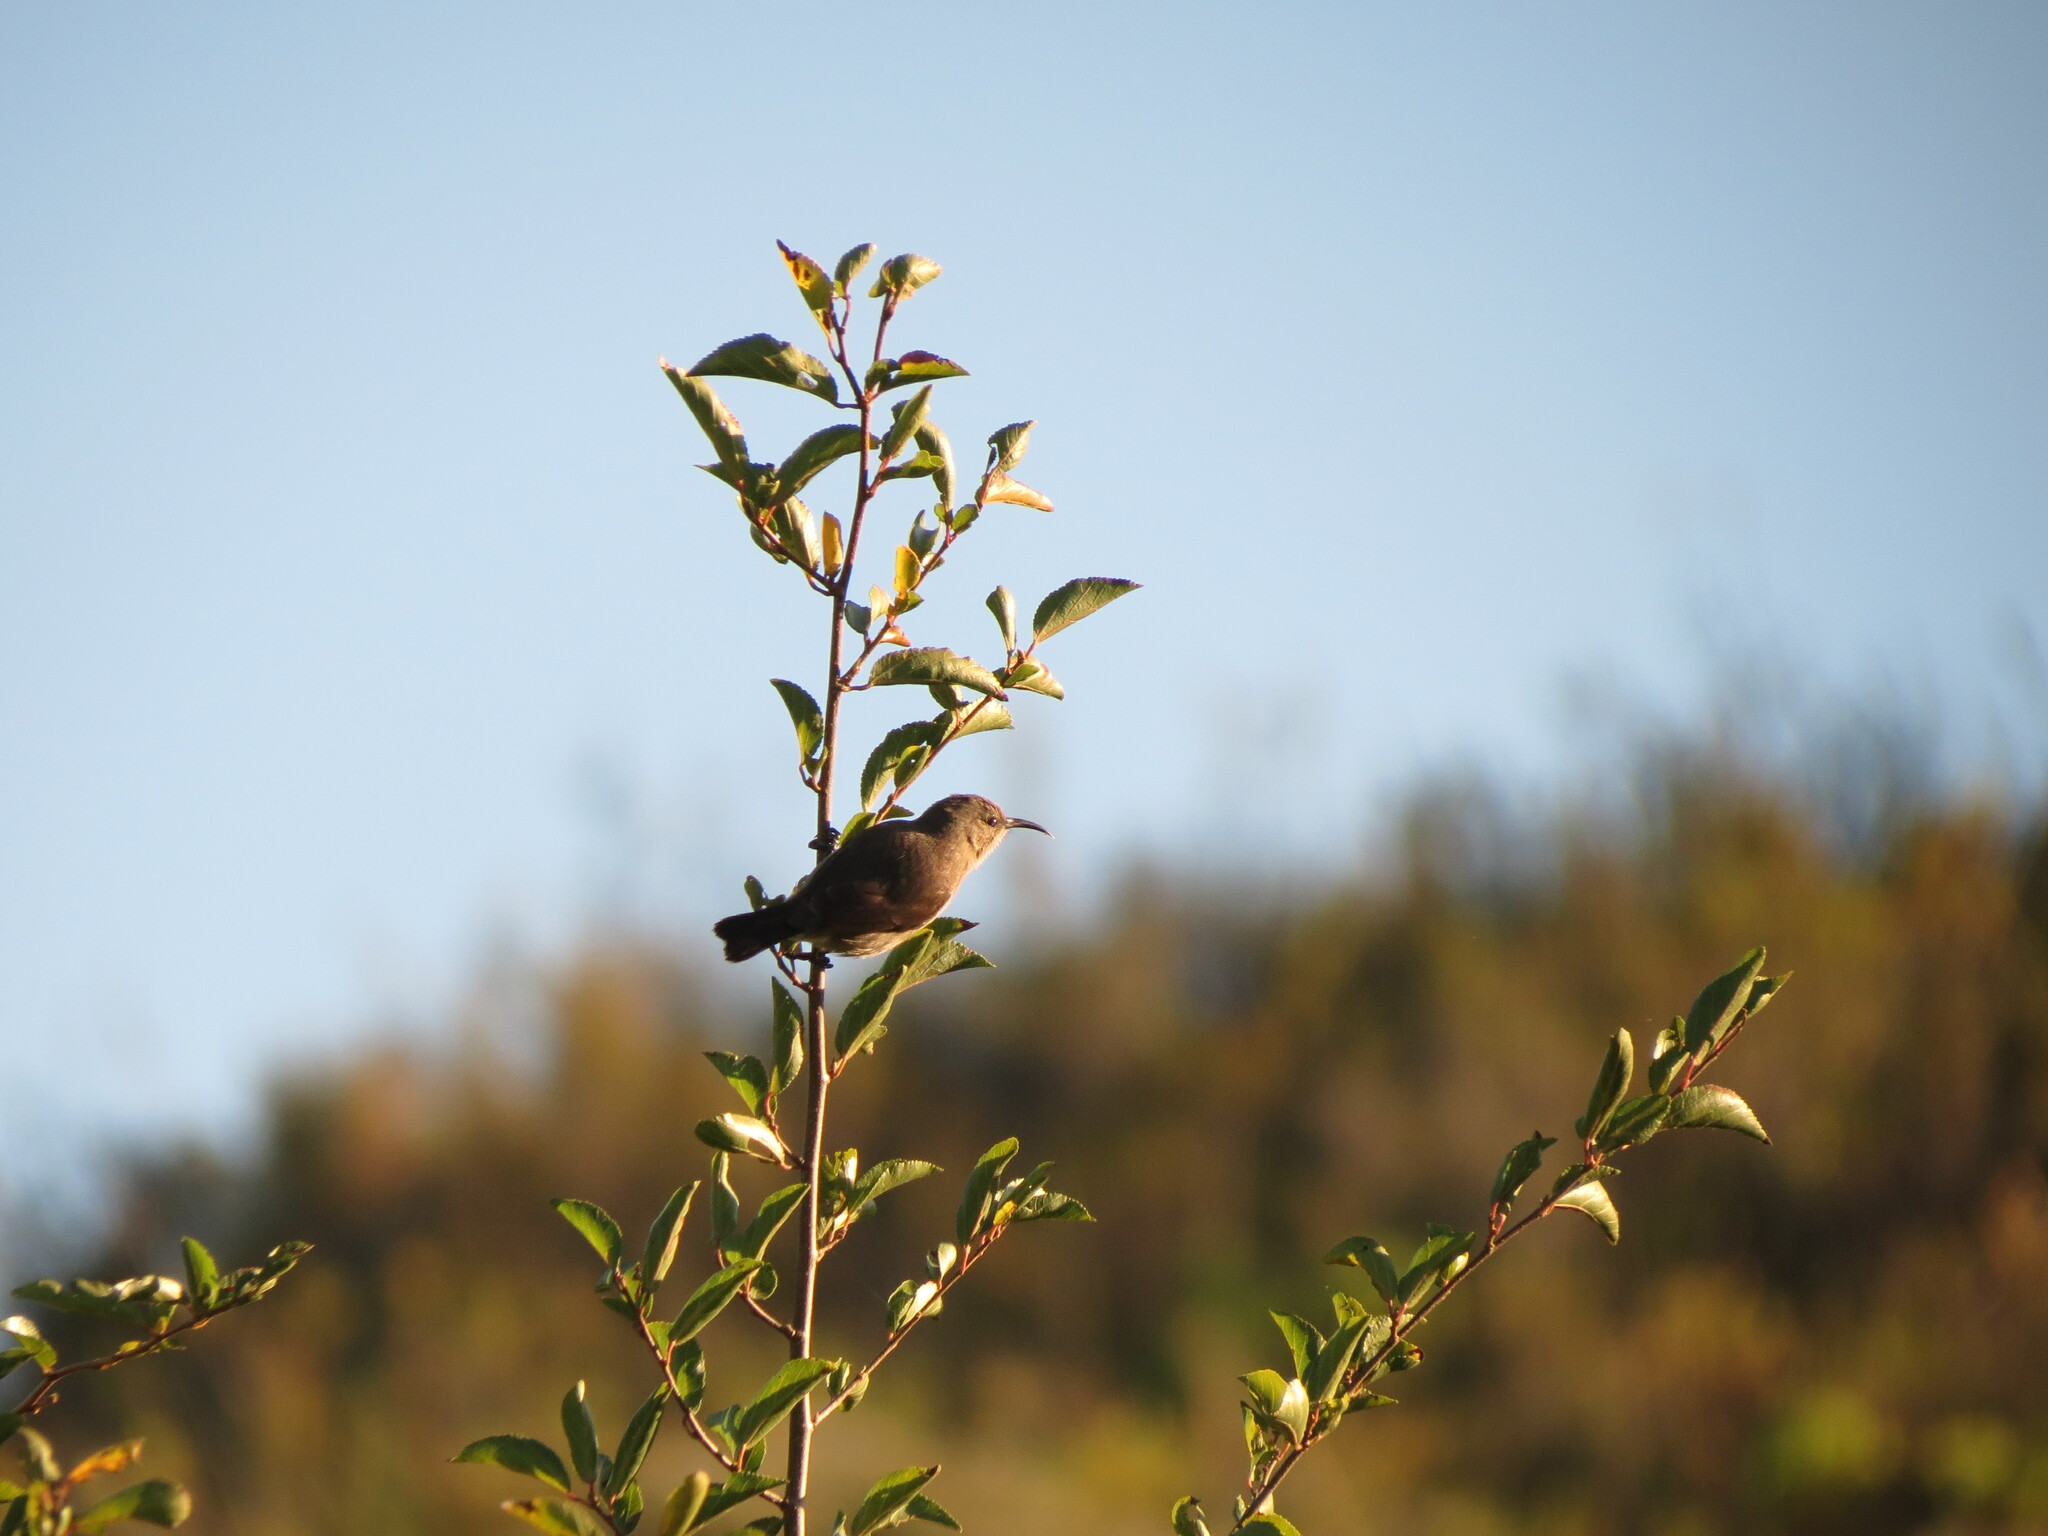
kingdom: Animalia
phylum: Chordata
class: Aves
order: Passeriformes
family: Nectariniidae
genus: Cinnyris
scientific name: Cinnyris chalybeus
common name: Southern double-collared sunbird
